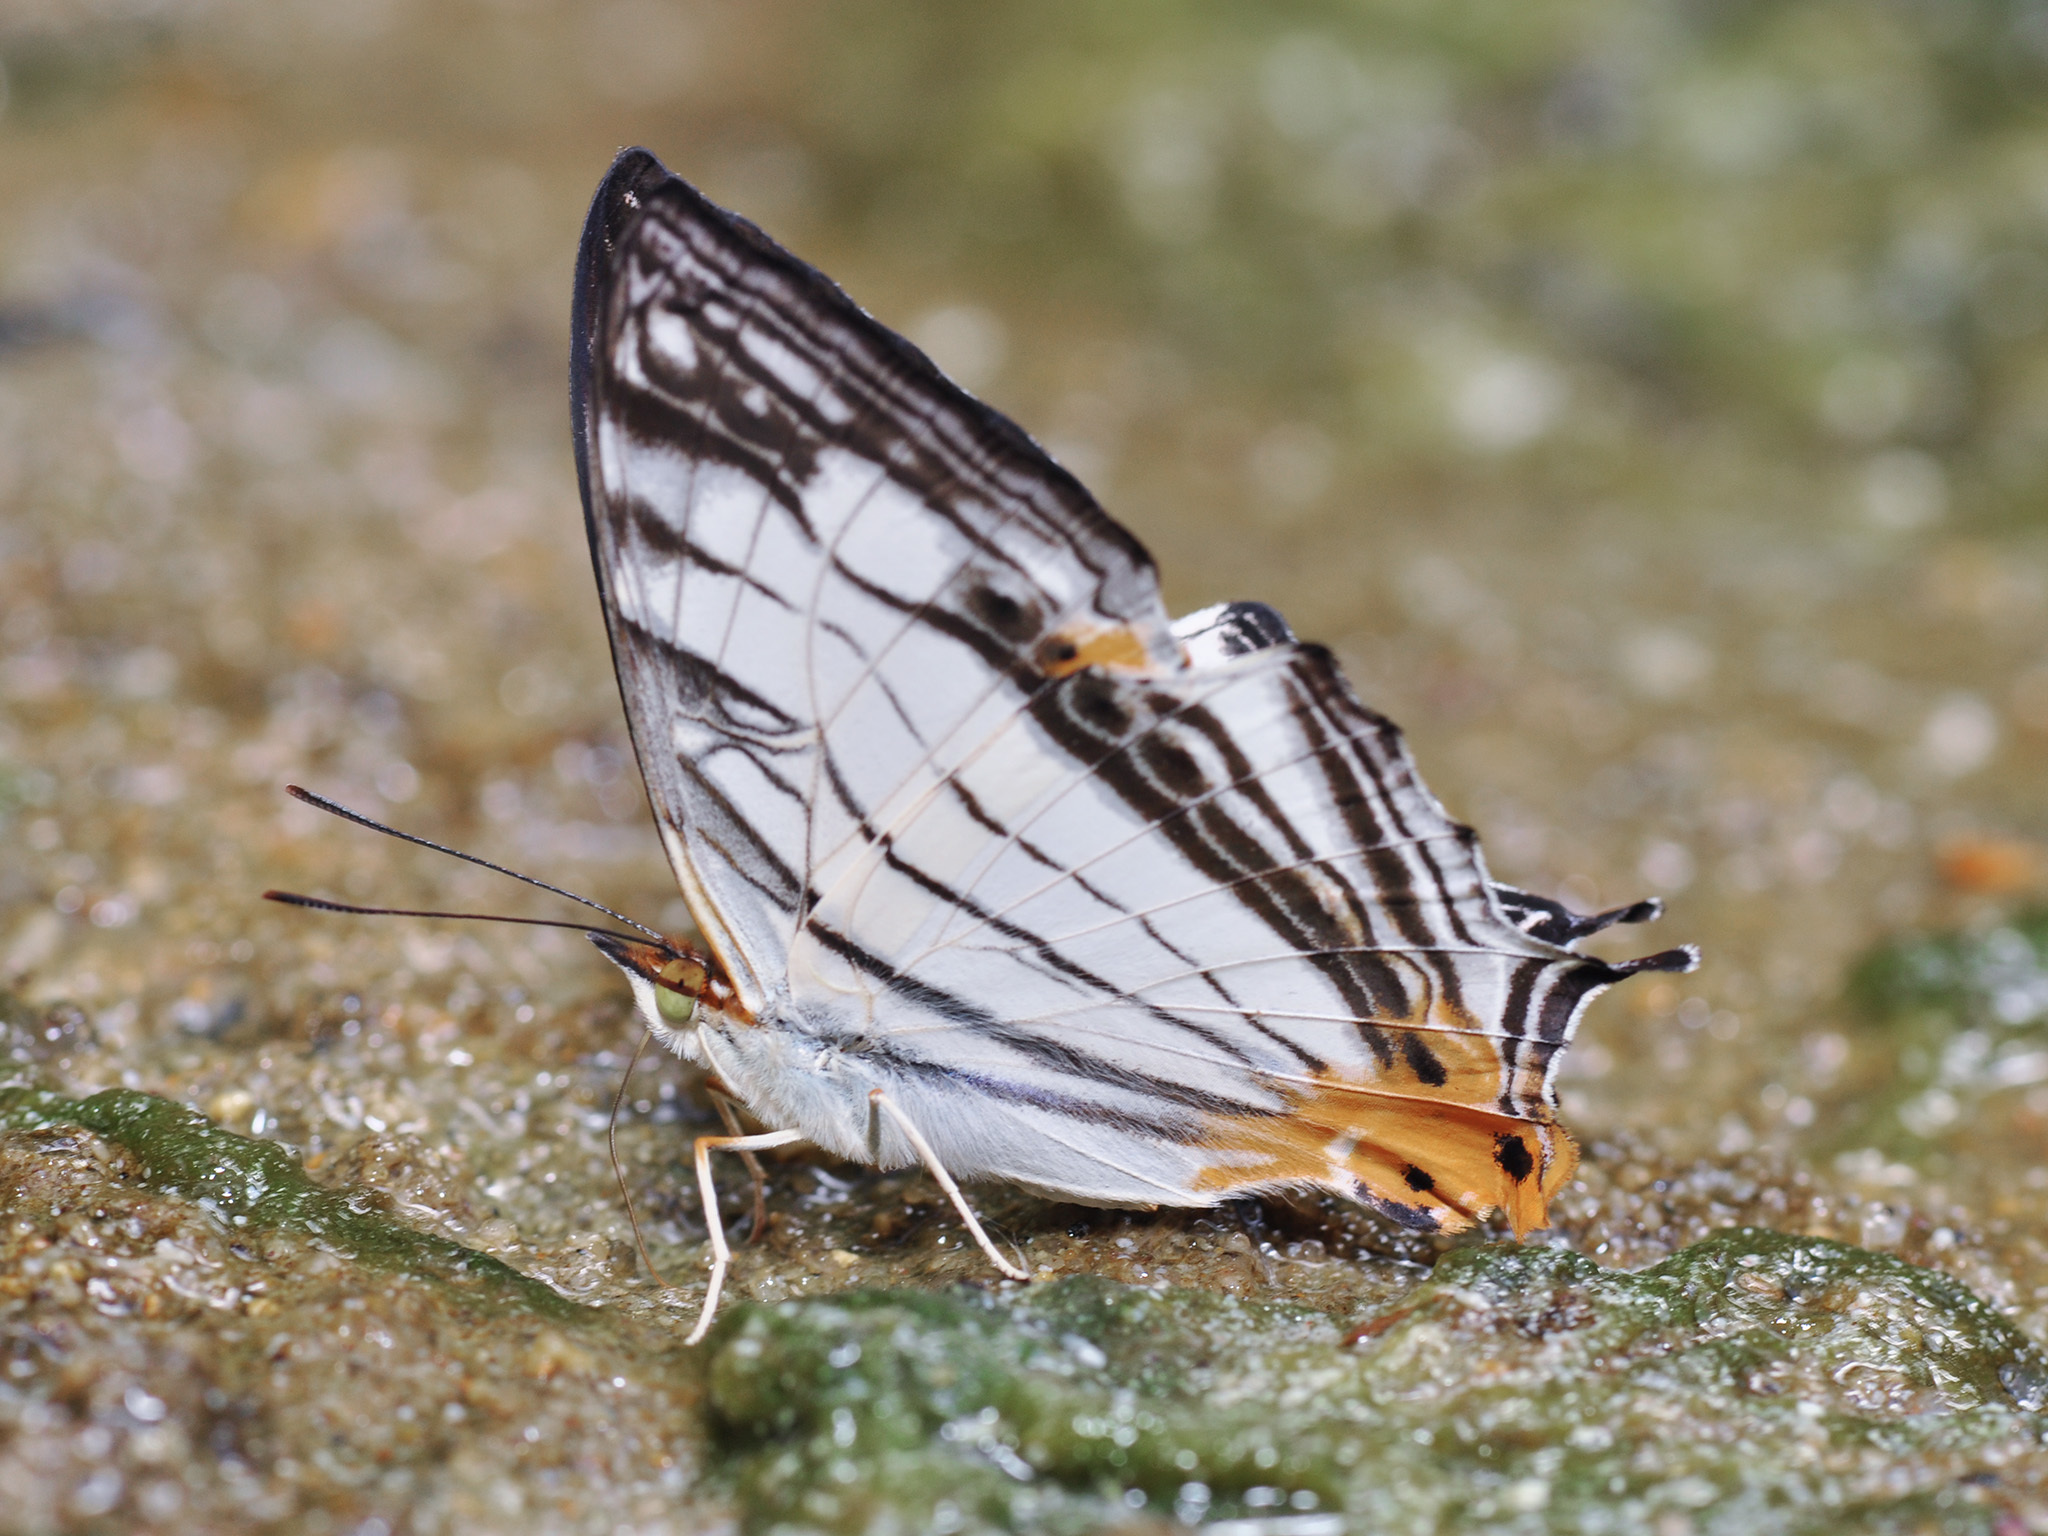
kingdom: Animalia
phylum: Arthropoda
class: Insecta
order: Lepidoptera
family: Nymphalidae
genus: Cyrestis
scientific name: Cyrestis maenalis
